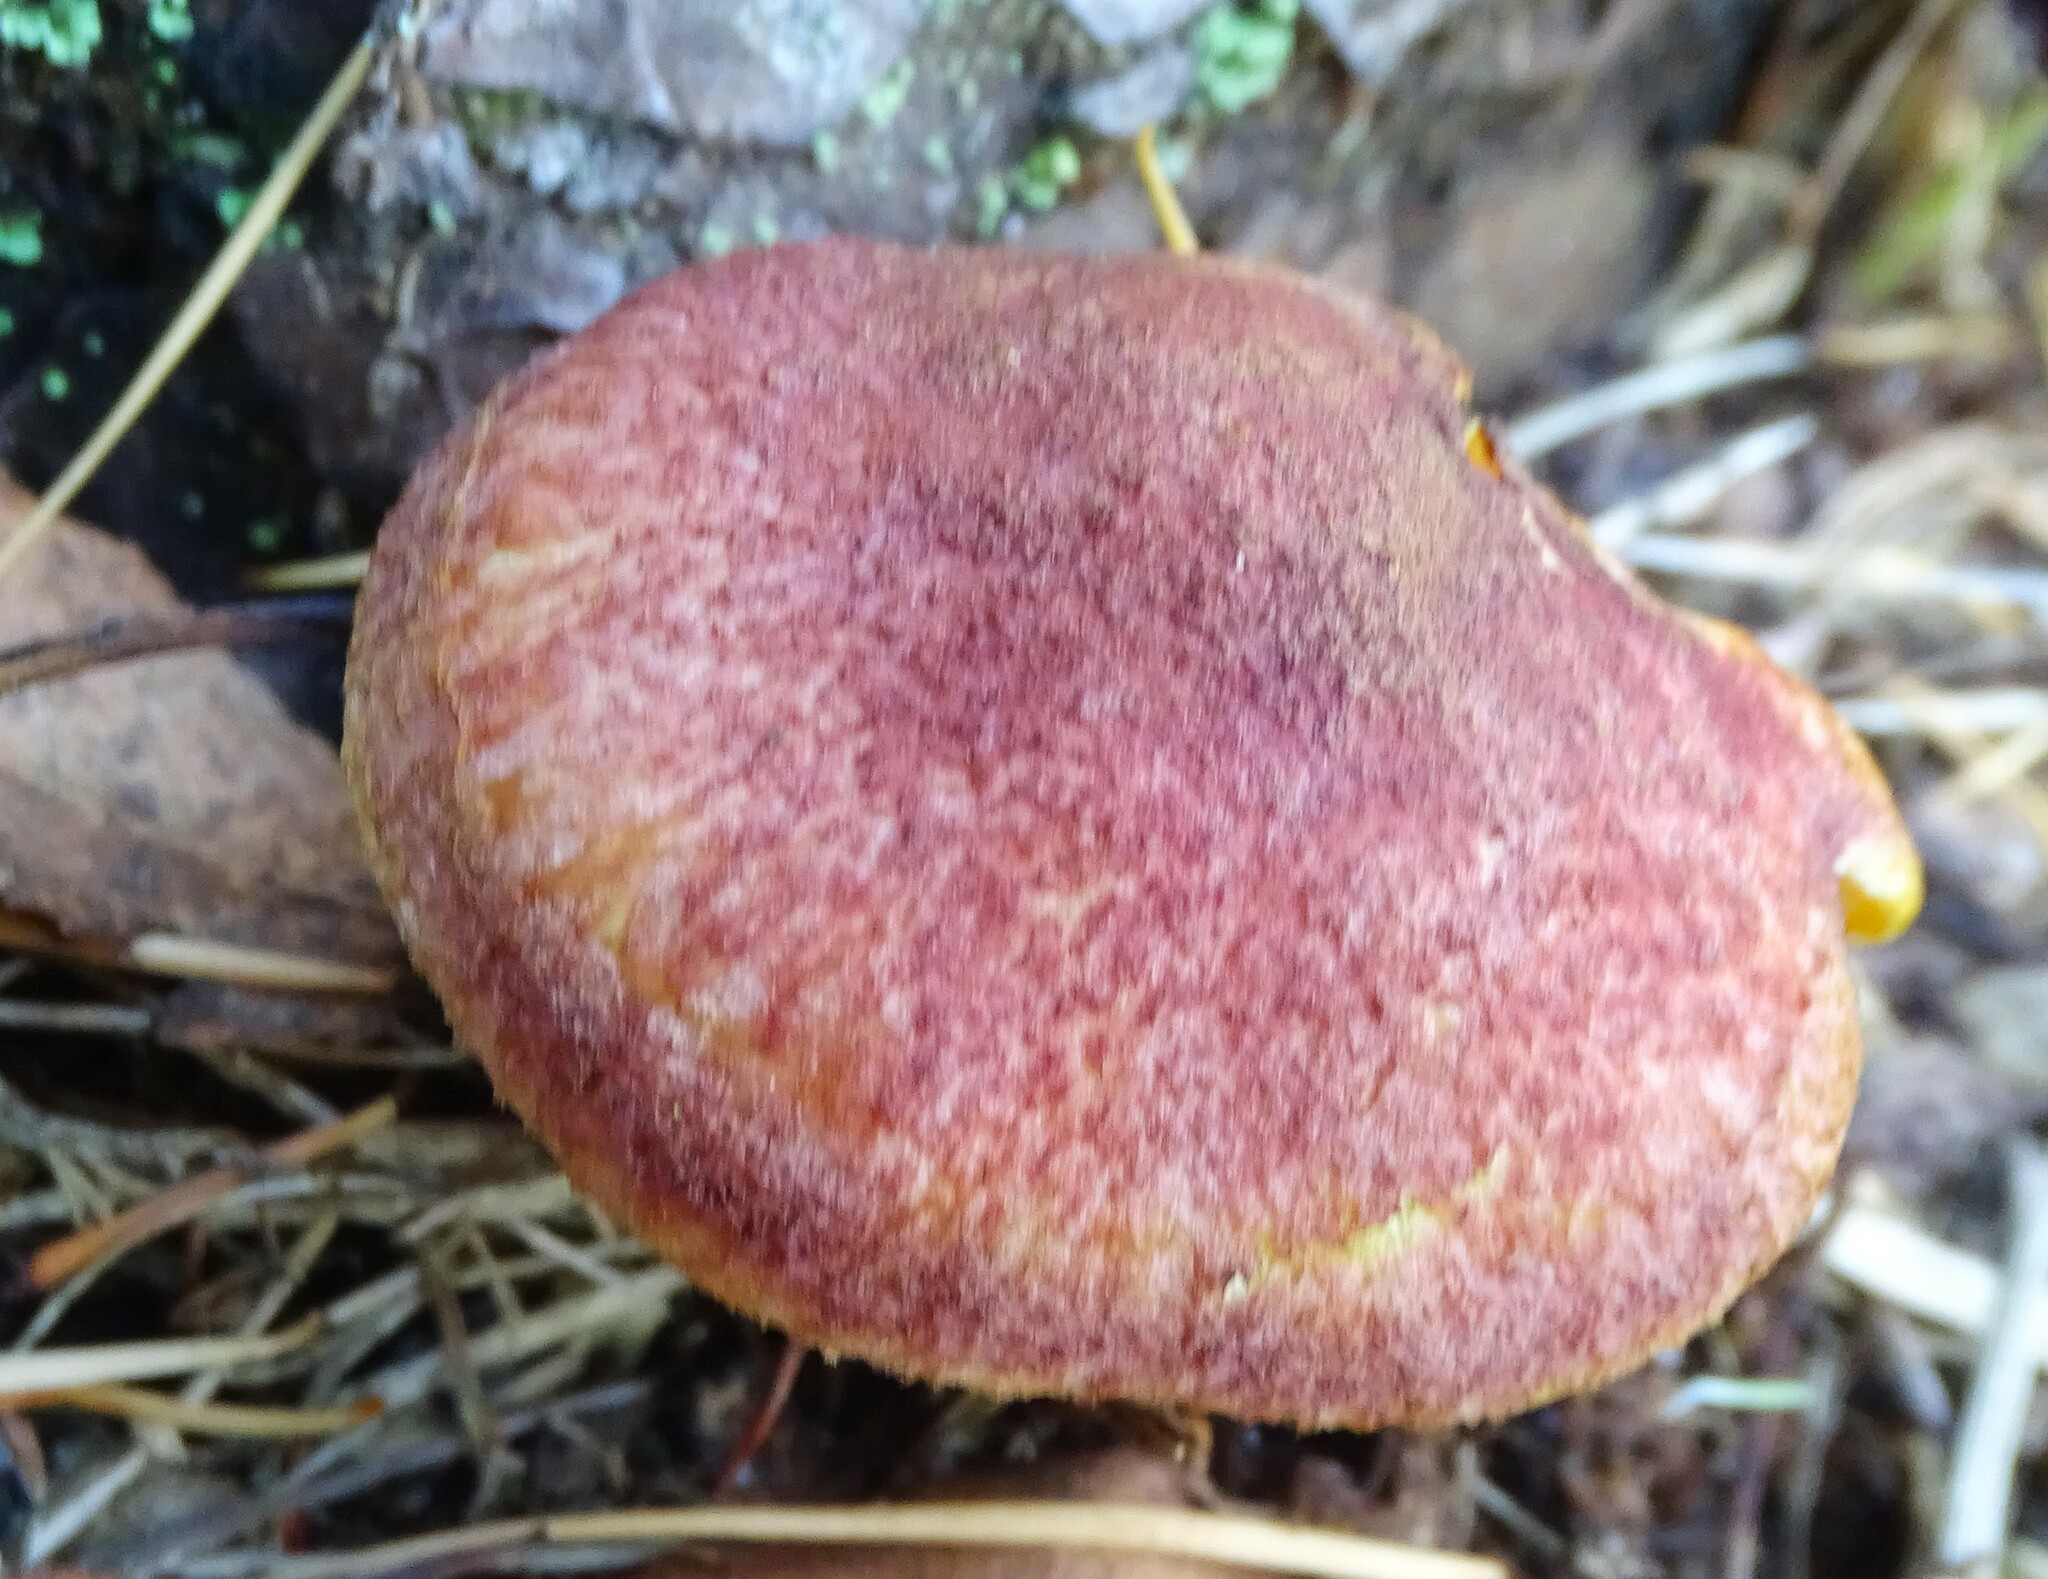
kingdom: Fungi
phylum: Basidiomycota
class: Agaricomycetes
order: Agaricales
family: Tricholomataceae
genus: Tricholomopsis
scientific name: Tricholomopsis rutilans
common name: Plums and custard
